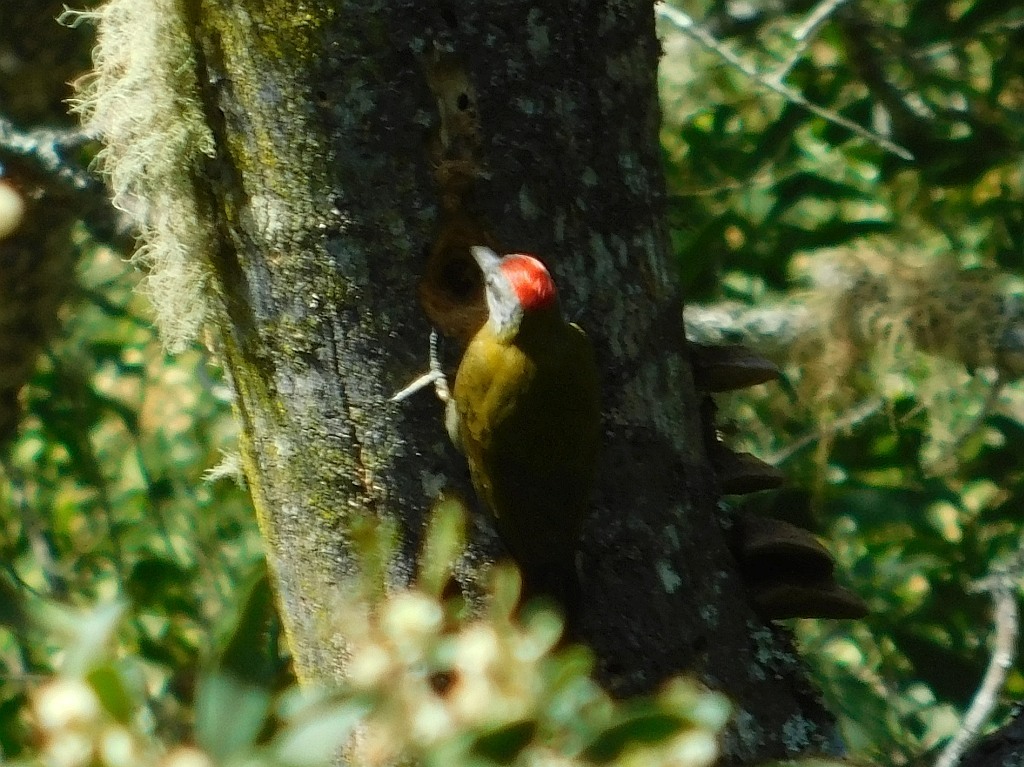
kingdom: Animalia
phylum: Chordata
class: Aves
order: Piciformes
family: Picidae
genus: Dendropicos
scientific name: Dendropicos griseocephalus
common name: Olive woodpecker
